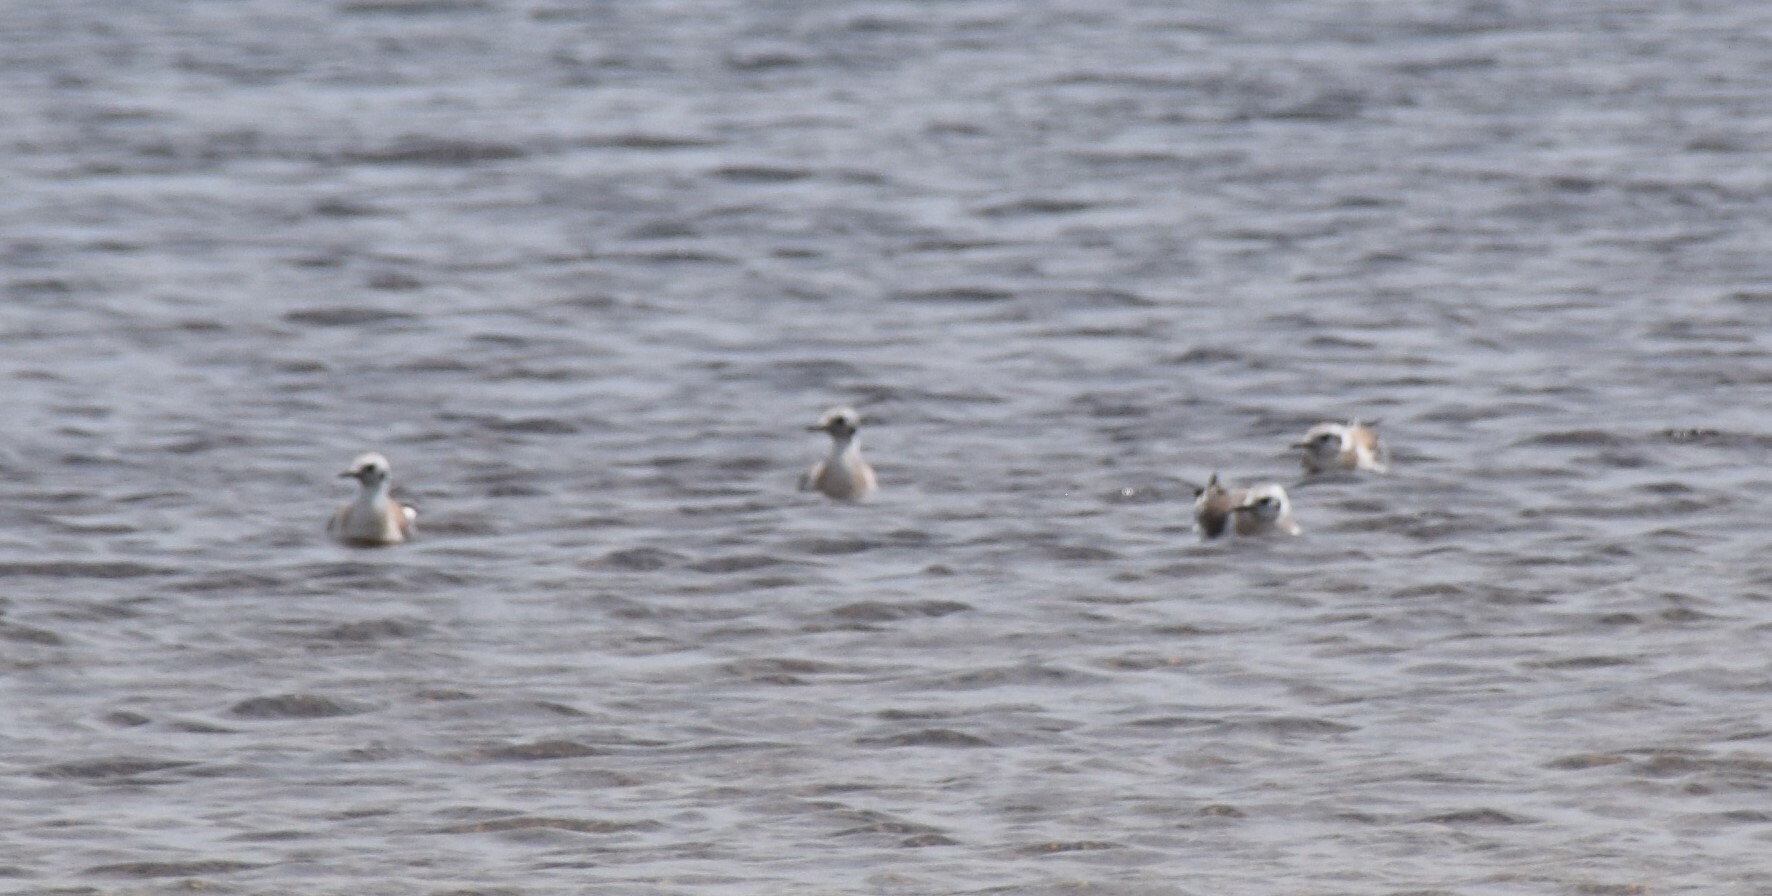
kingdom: Animalia
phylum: Chordata
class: Aves
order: Charadriiformes
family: Laridae
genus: Chroicocephalus
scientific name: Chroicocephalus philadelphia
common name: Bonaparte's gull
